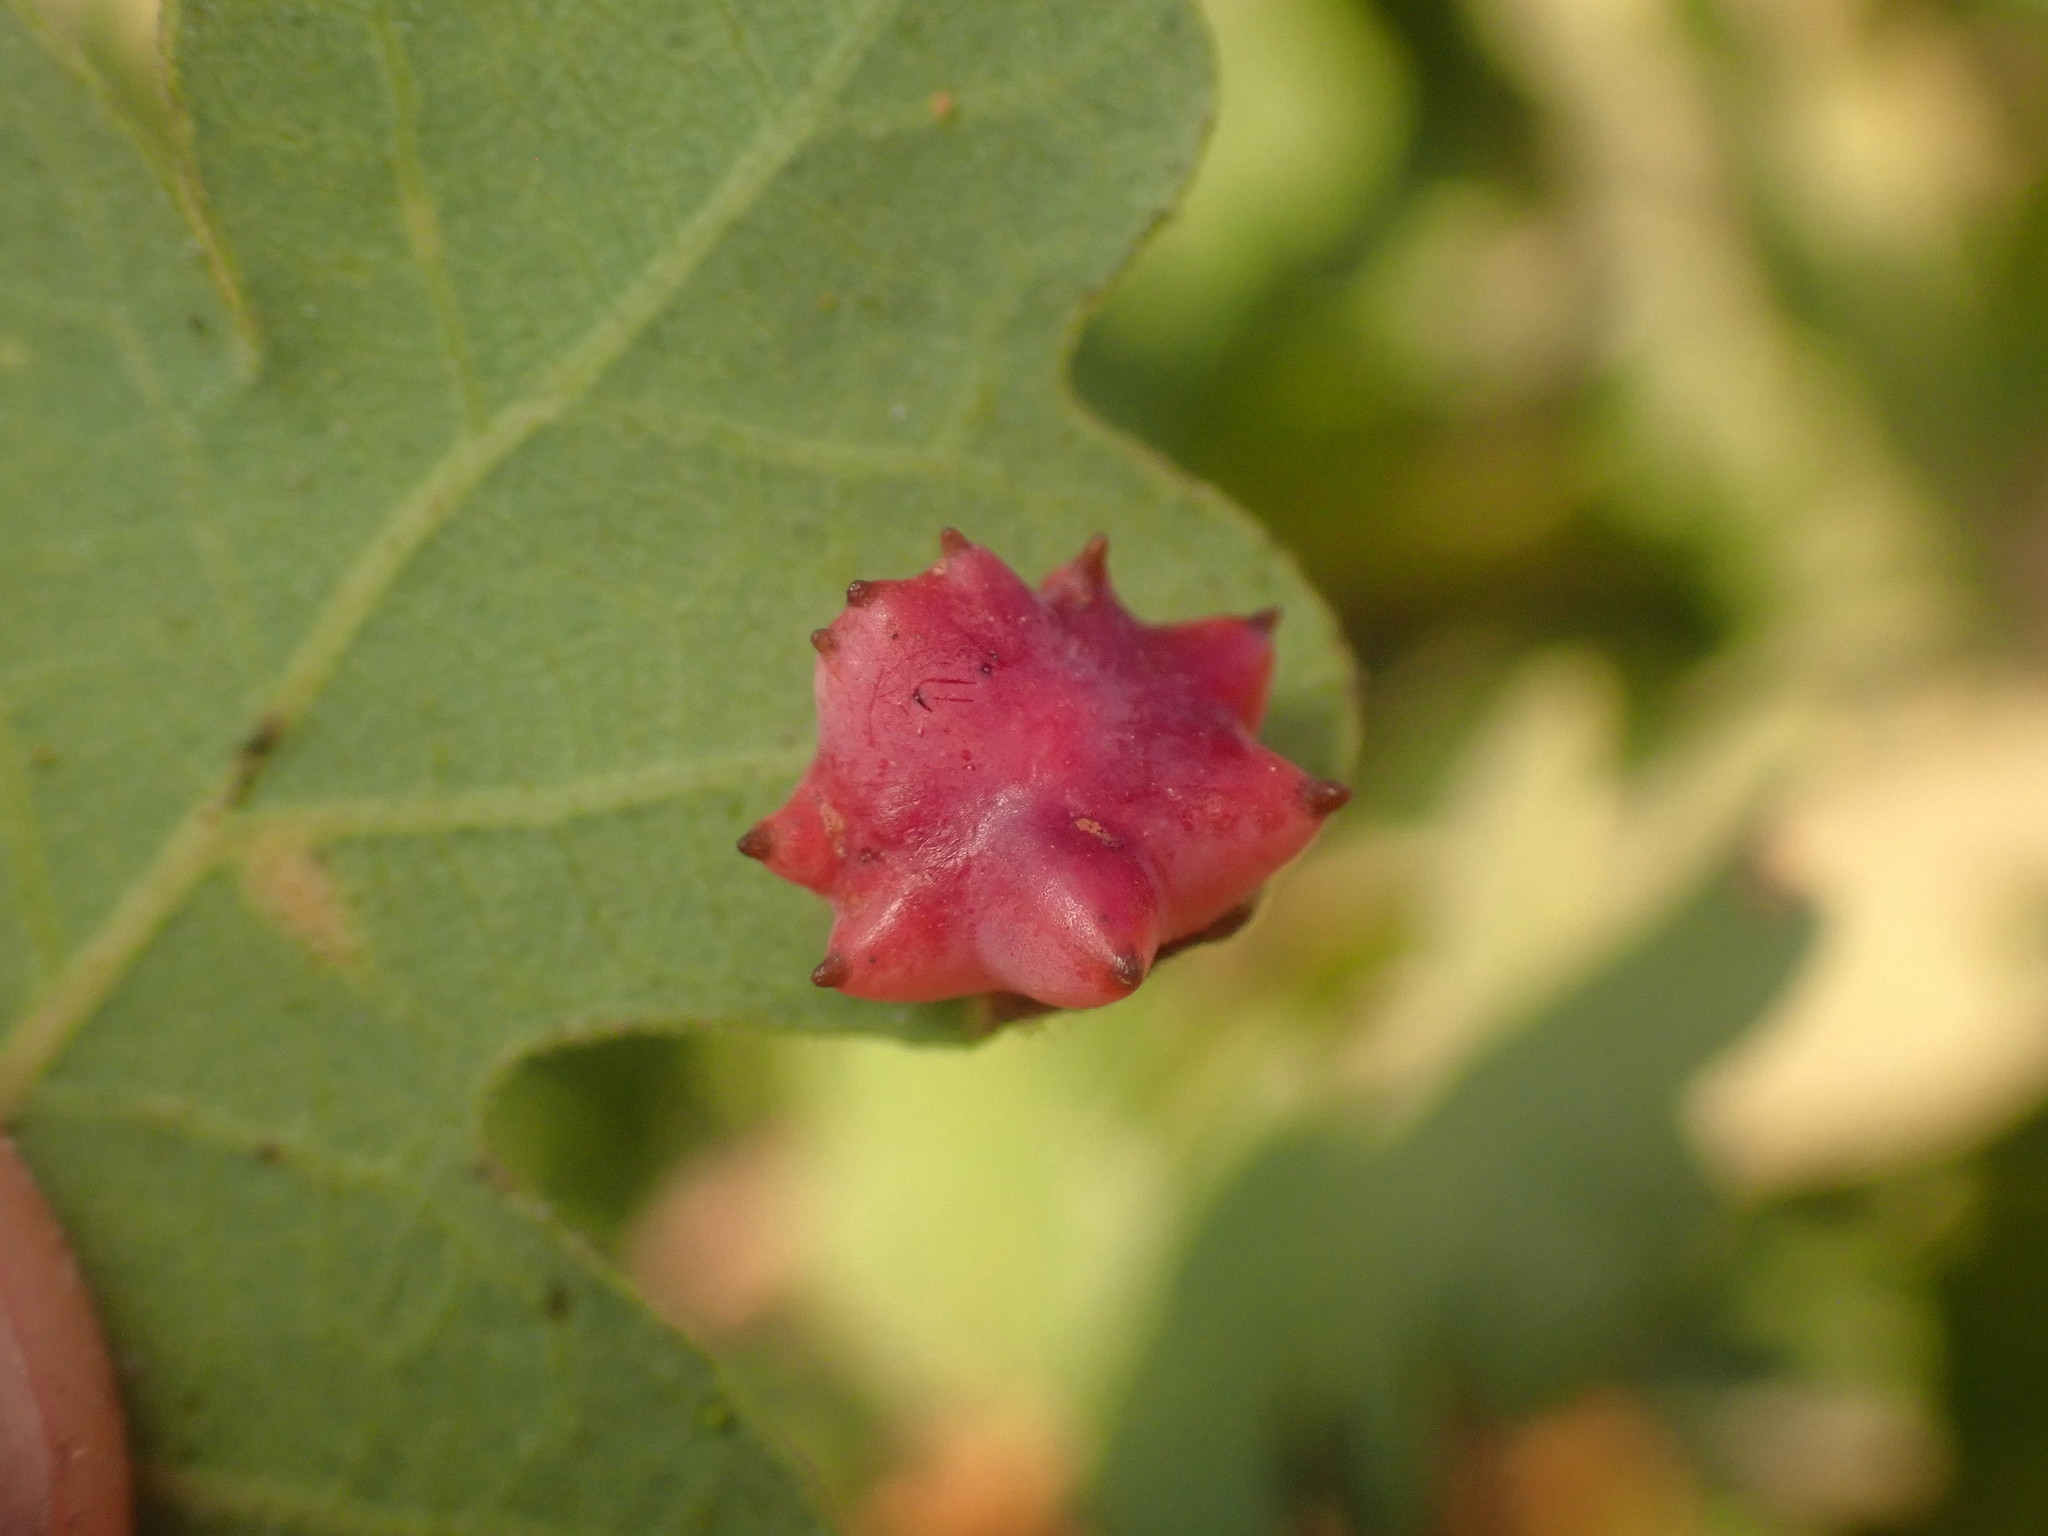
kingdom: Animalia
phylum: Arthropoda
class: Insecta
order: Hymenoptera
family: Cynipidae
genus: Cynips
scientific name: Cynips douglasi
